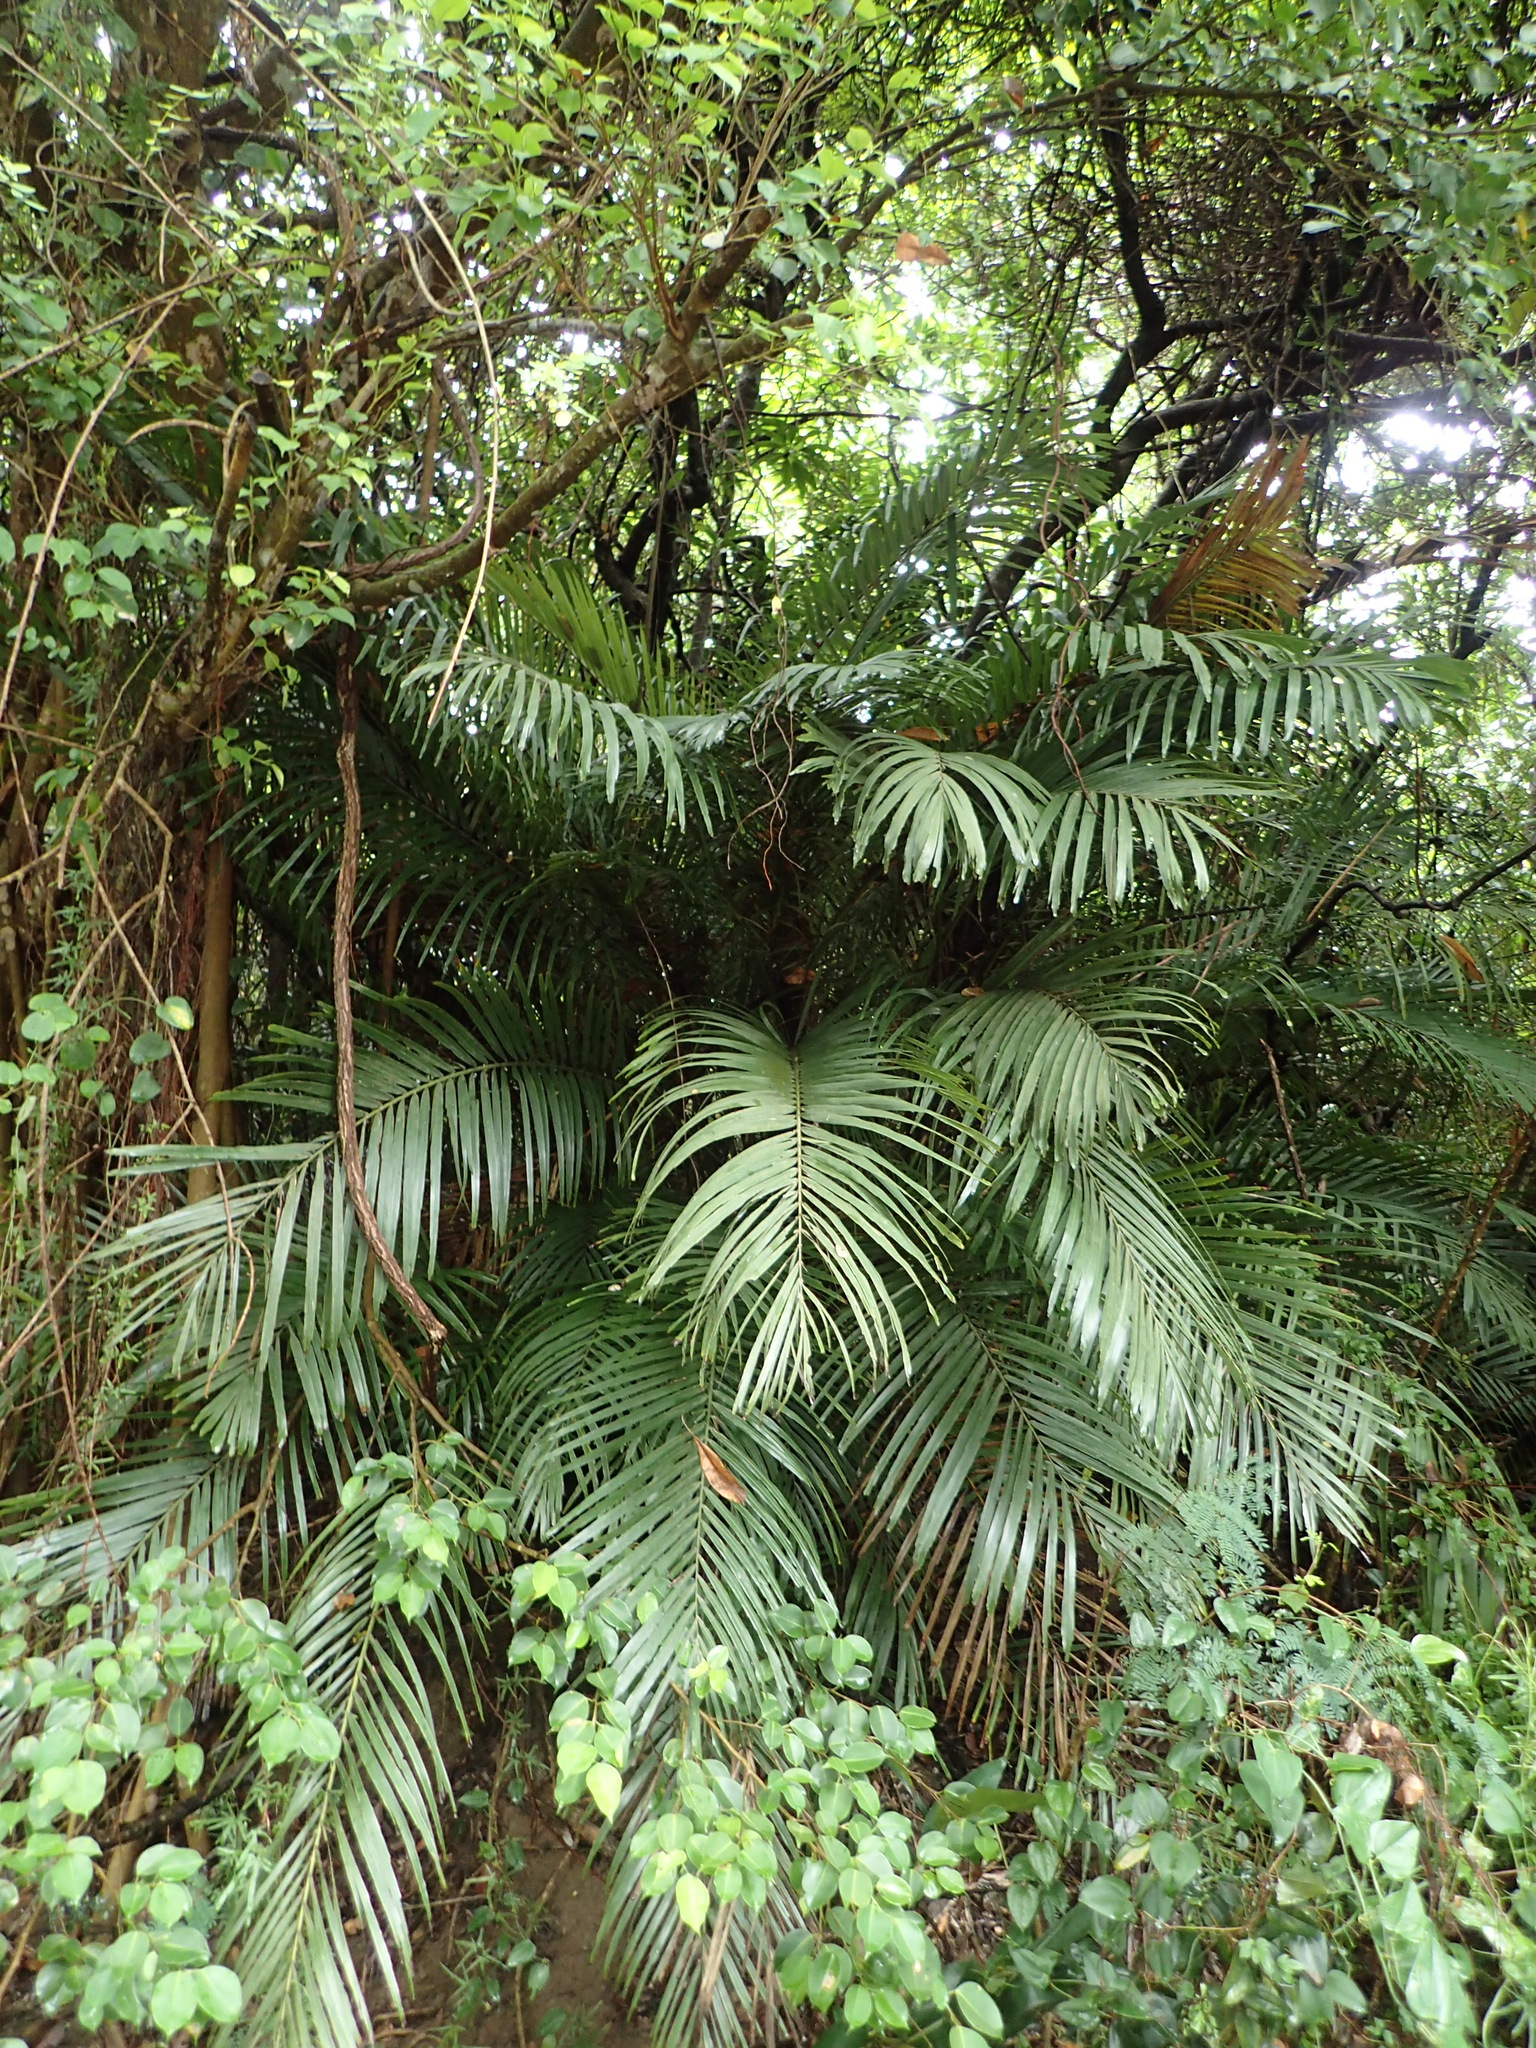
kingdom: Plantae
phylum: Tracheophyta
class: Liliopsida
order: Arecales
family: Arecaceae
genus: Arenga
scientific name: Arenga engleri
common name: Formosan sugar palm
